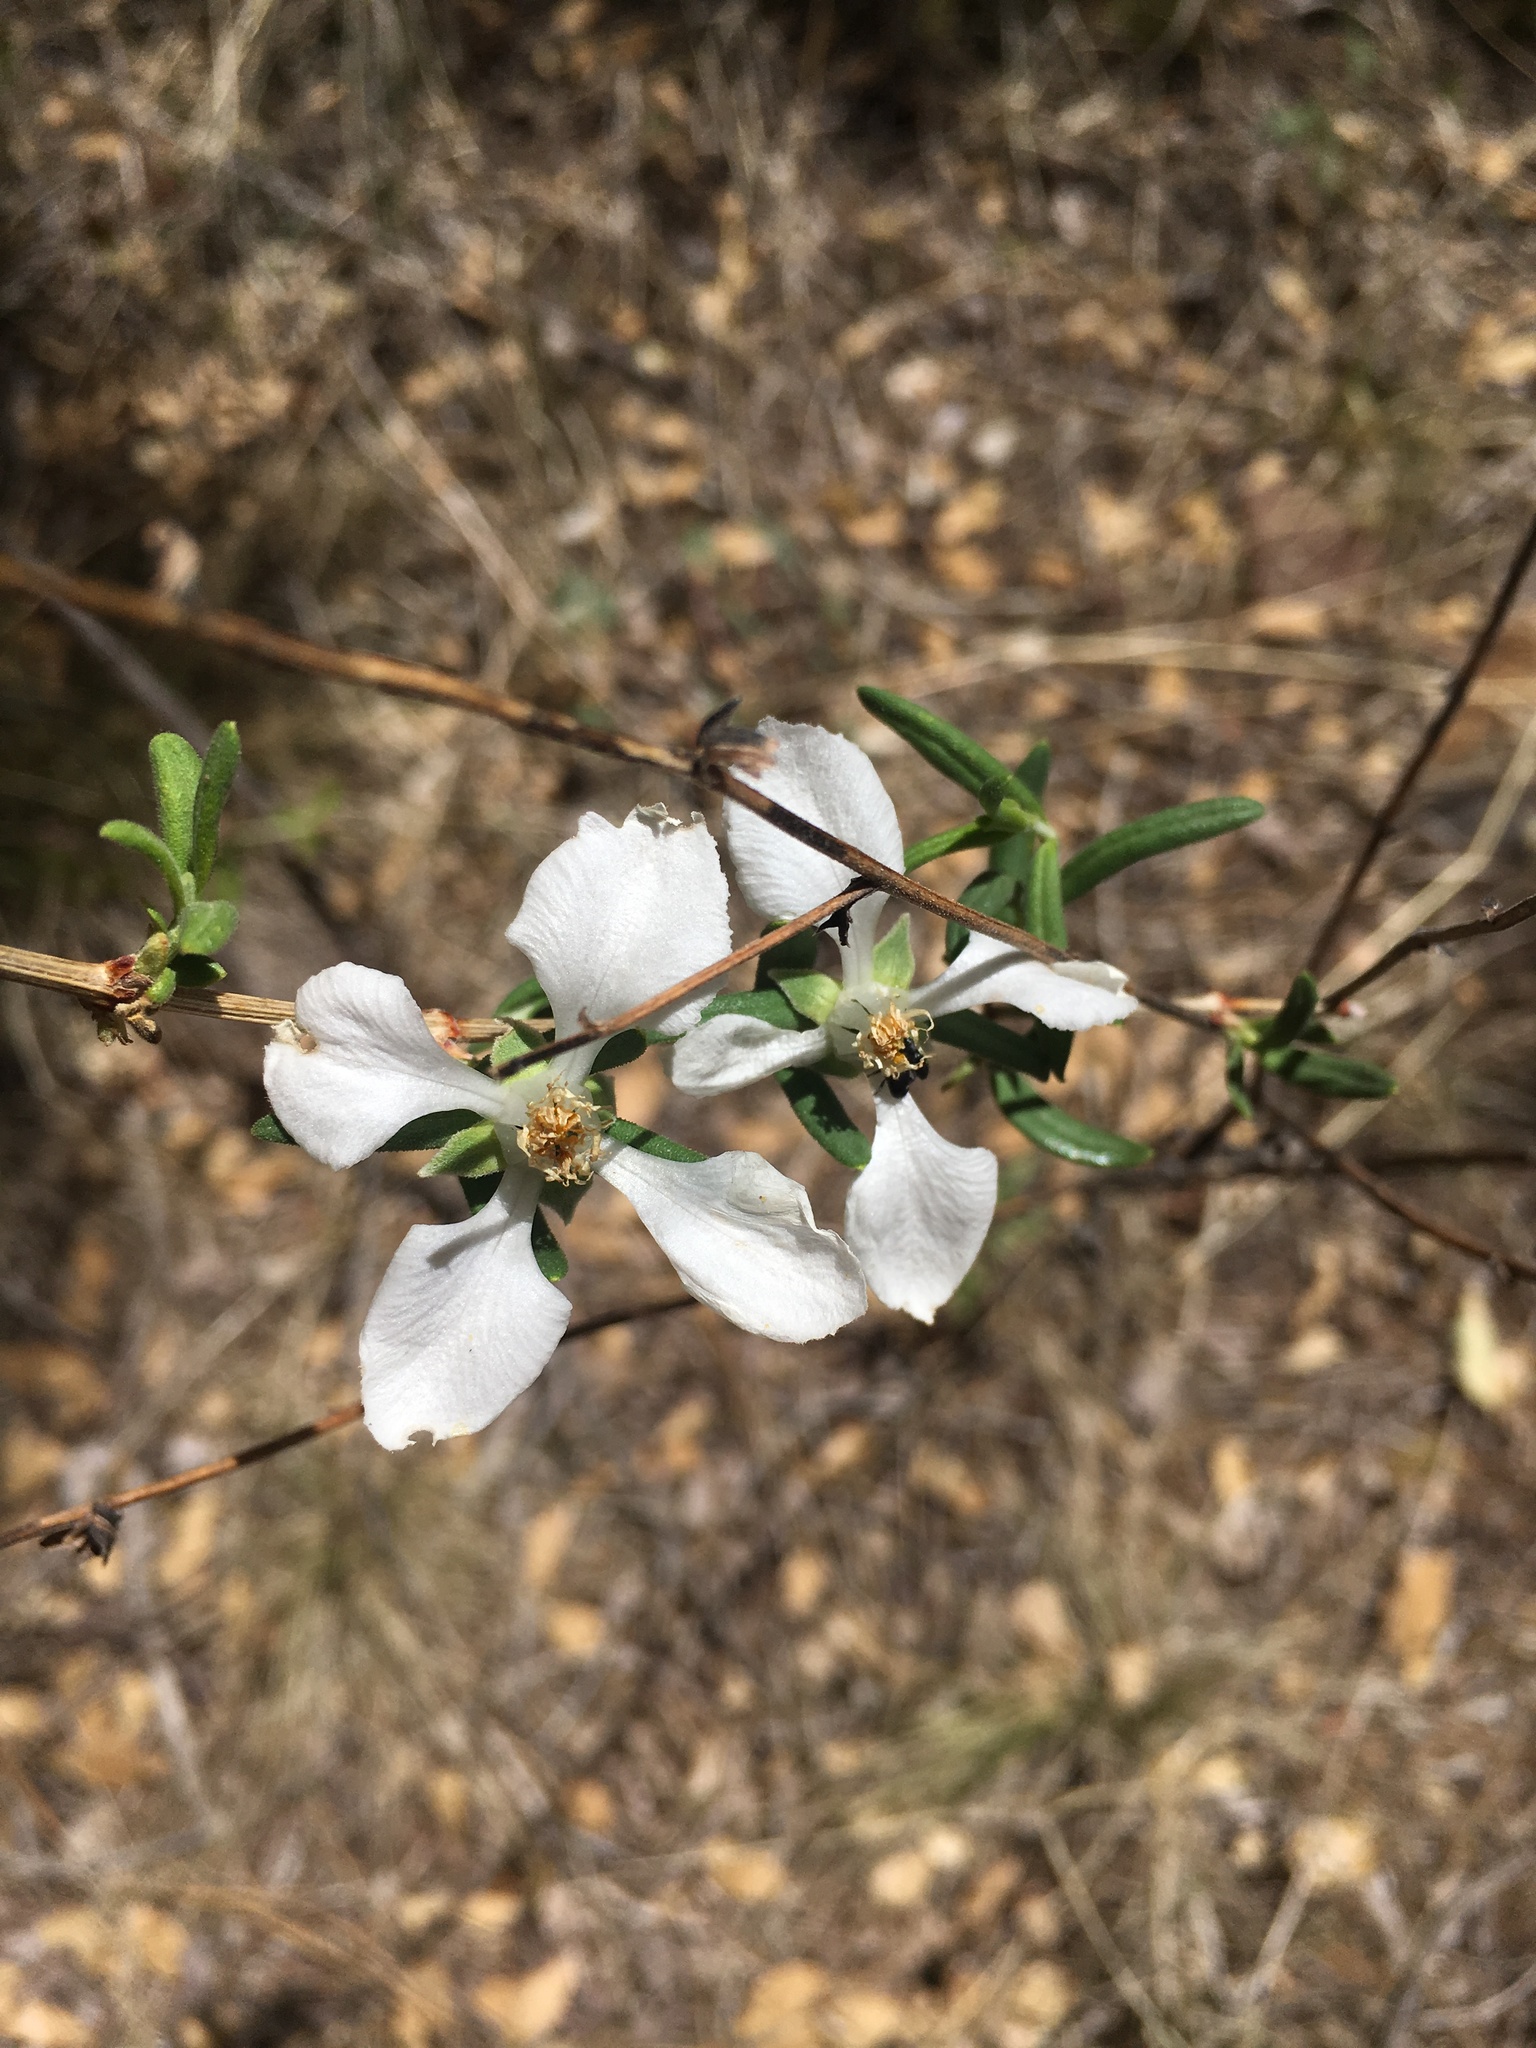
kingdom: Plantae
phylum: Tracheophyta
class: Magnoliopsida
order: Cornales
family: Hydrangeaceae
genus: Fendlera
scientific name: Fendlera rupicola
